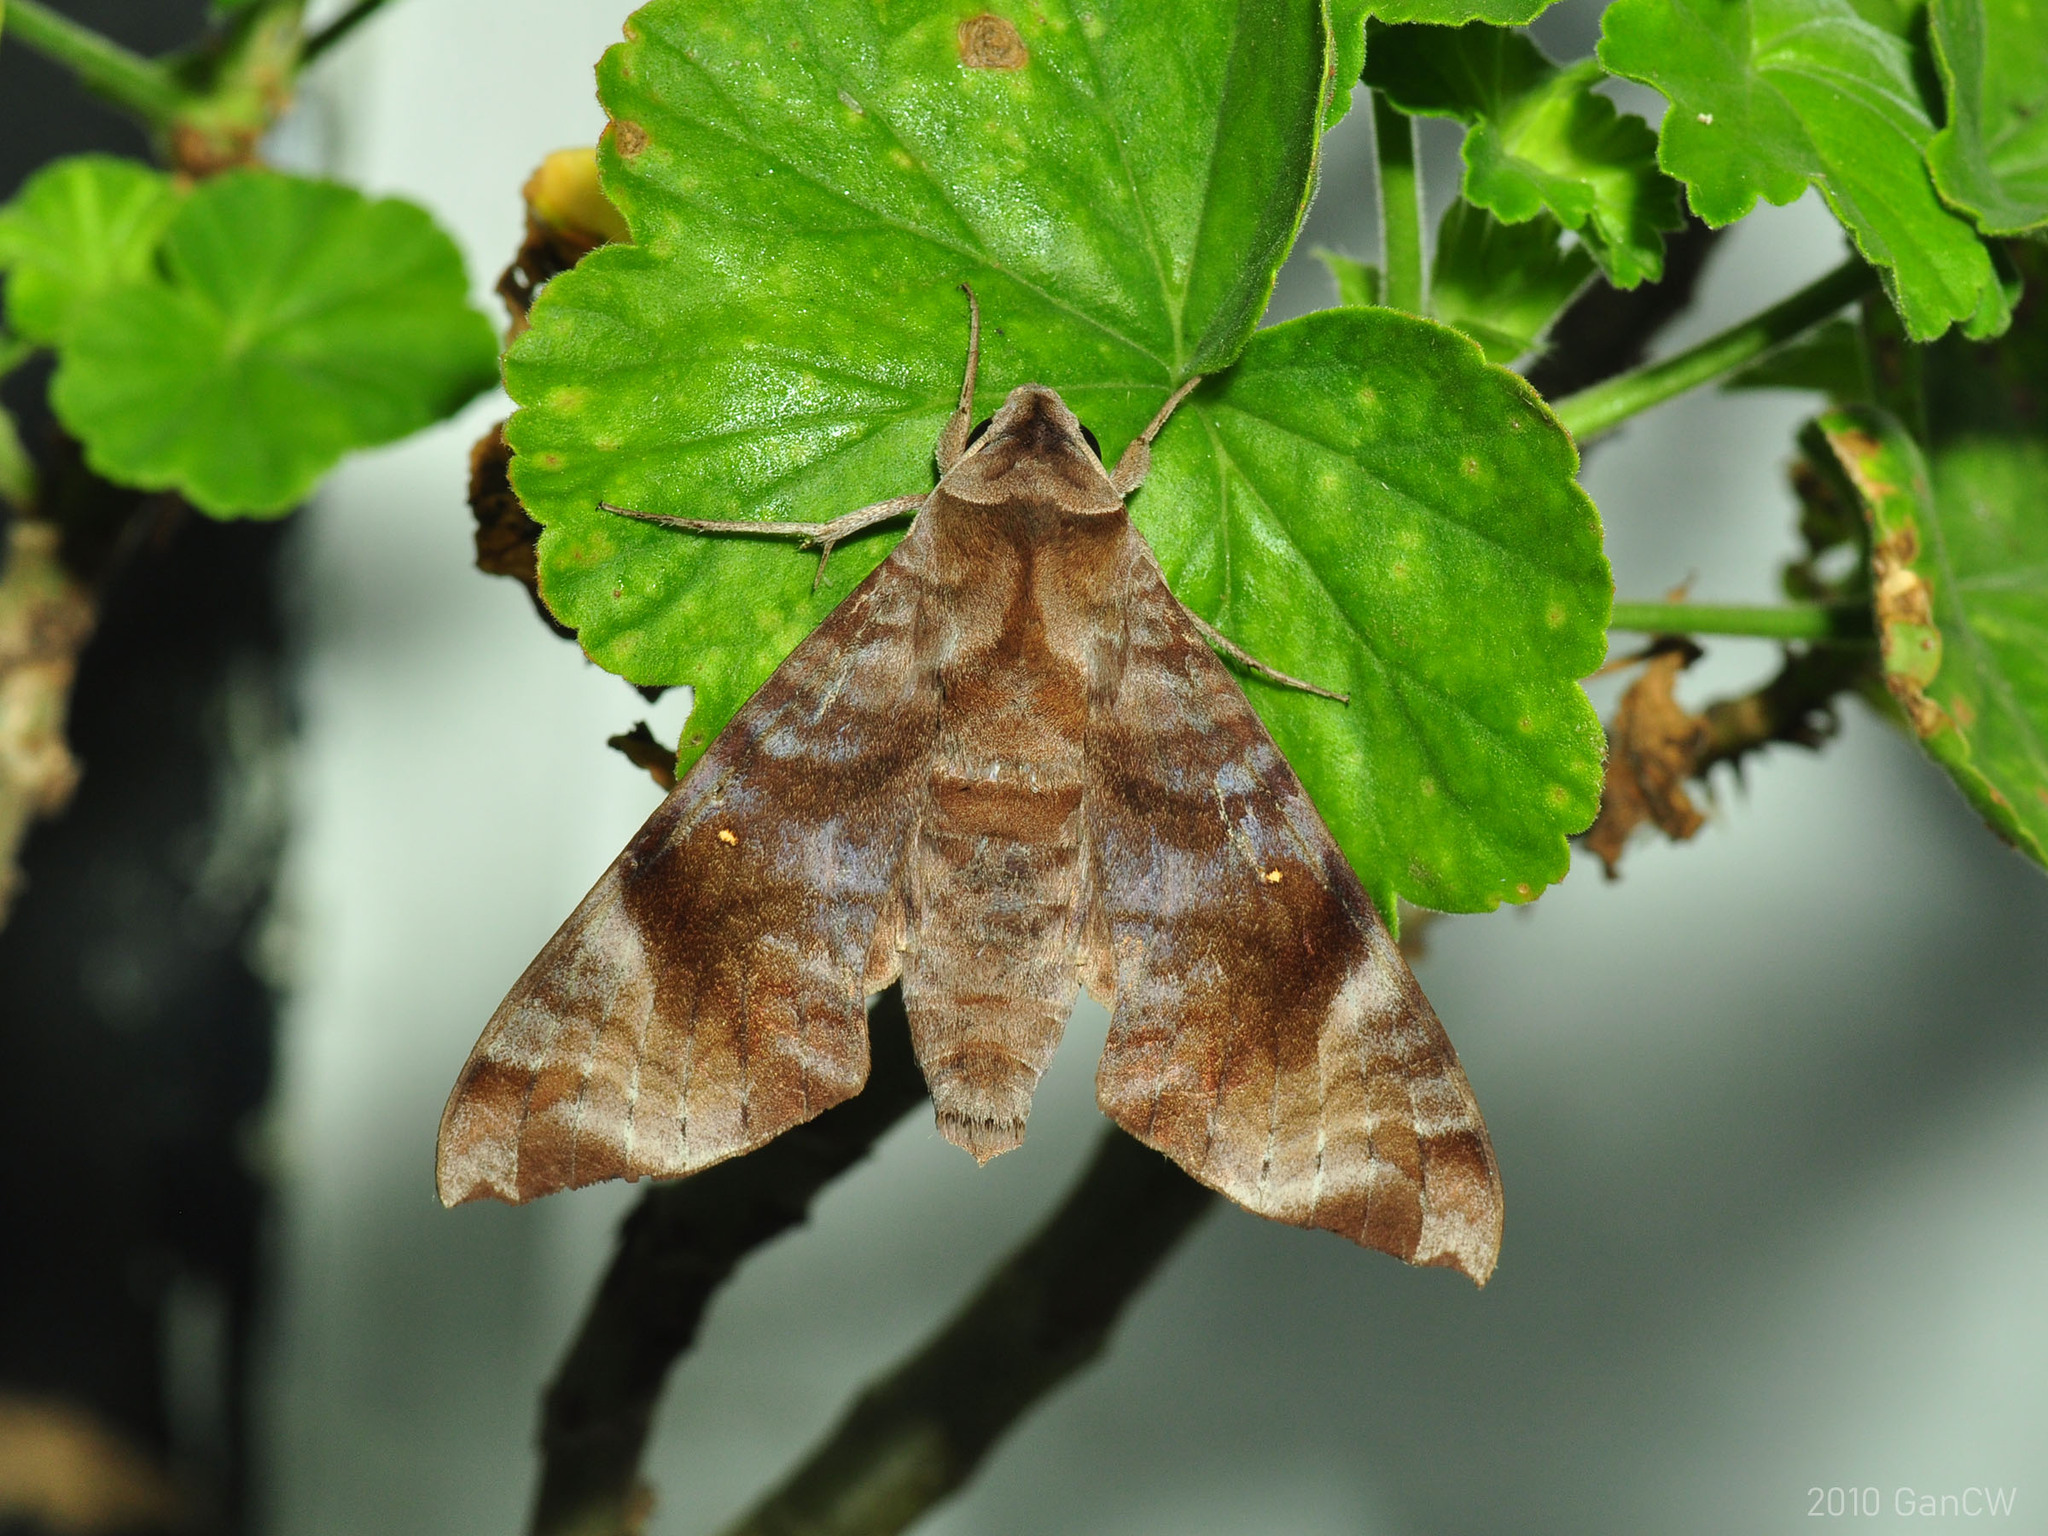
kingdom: Animalia
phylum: Arthropoda
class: Insecta
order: Lepidoptera
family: Sphingidae
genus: Acosmeryx
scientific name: Acosmeryx pseudonaga
